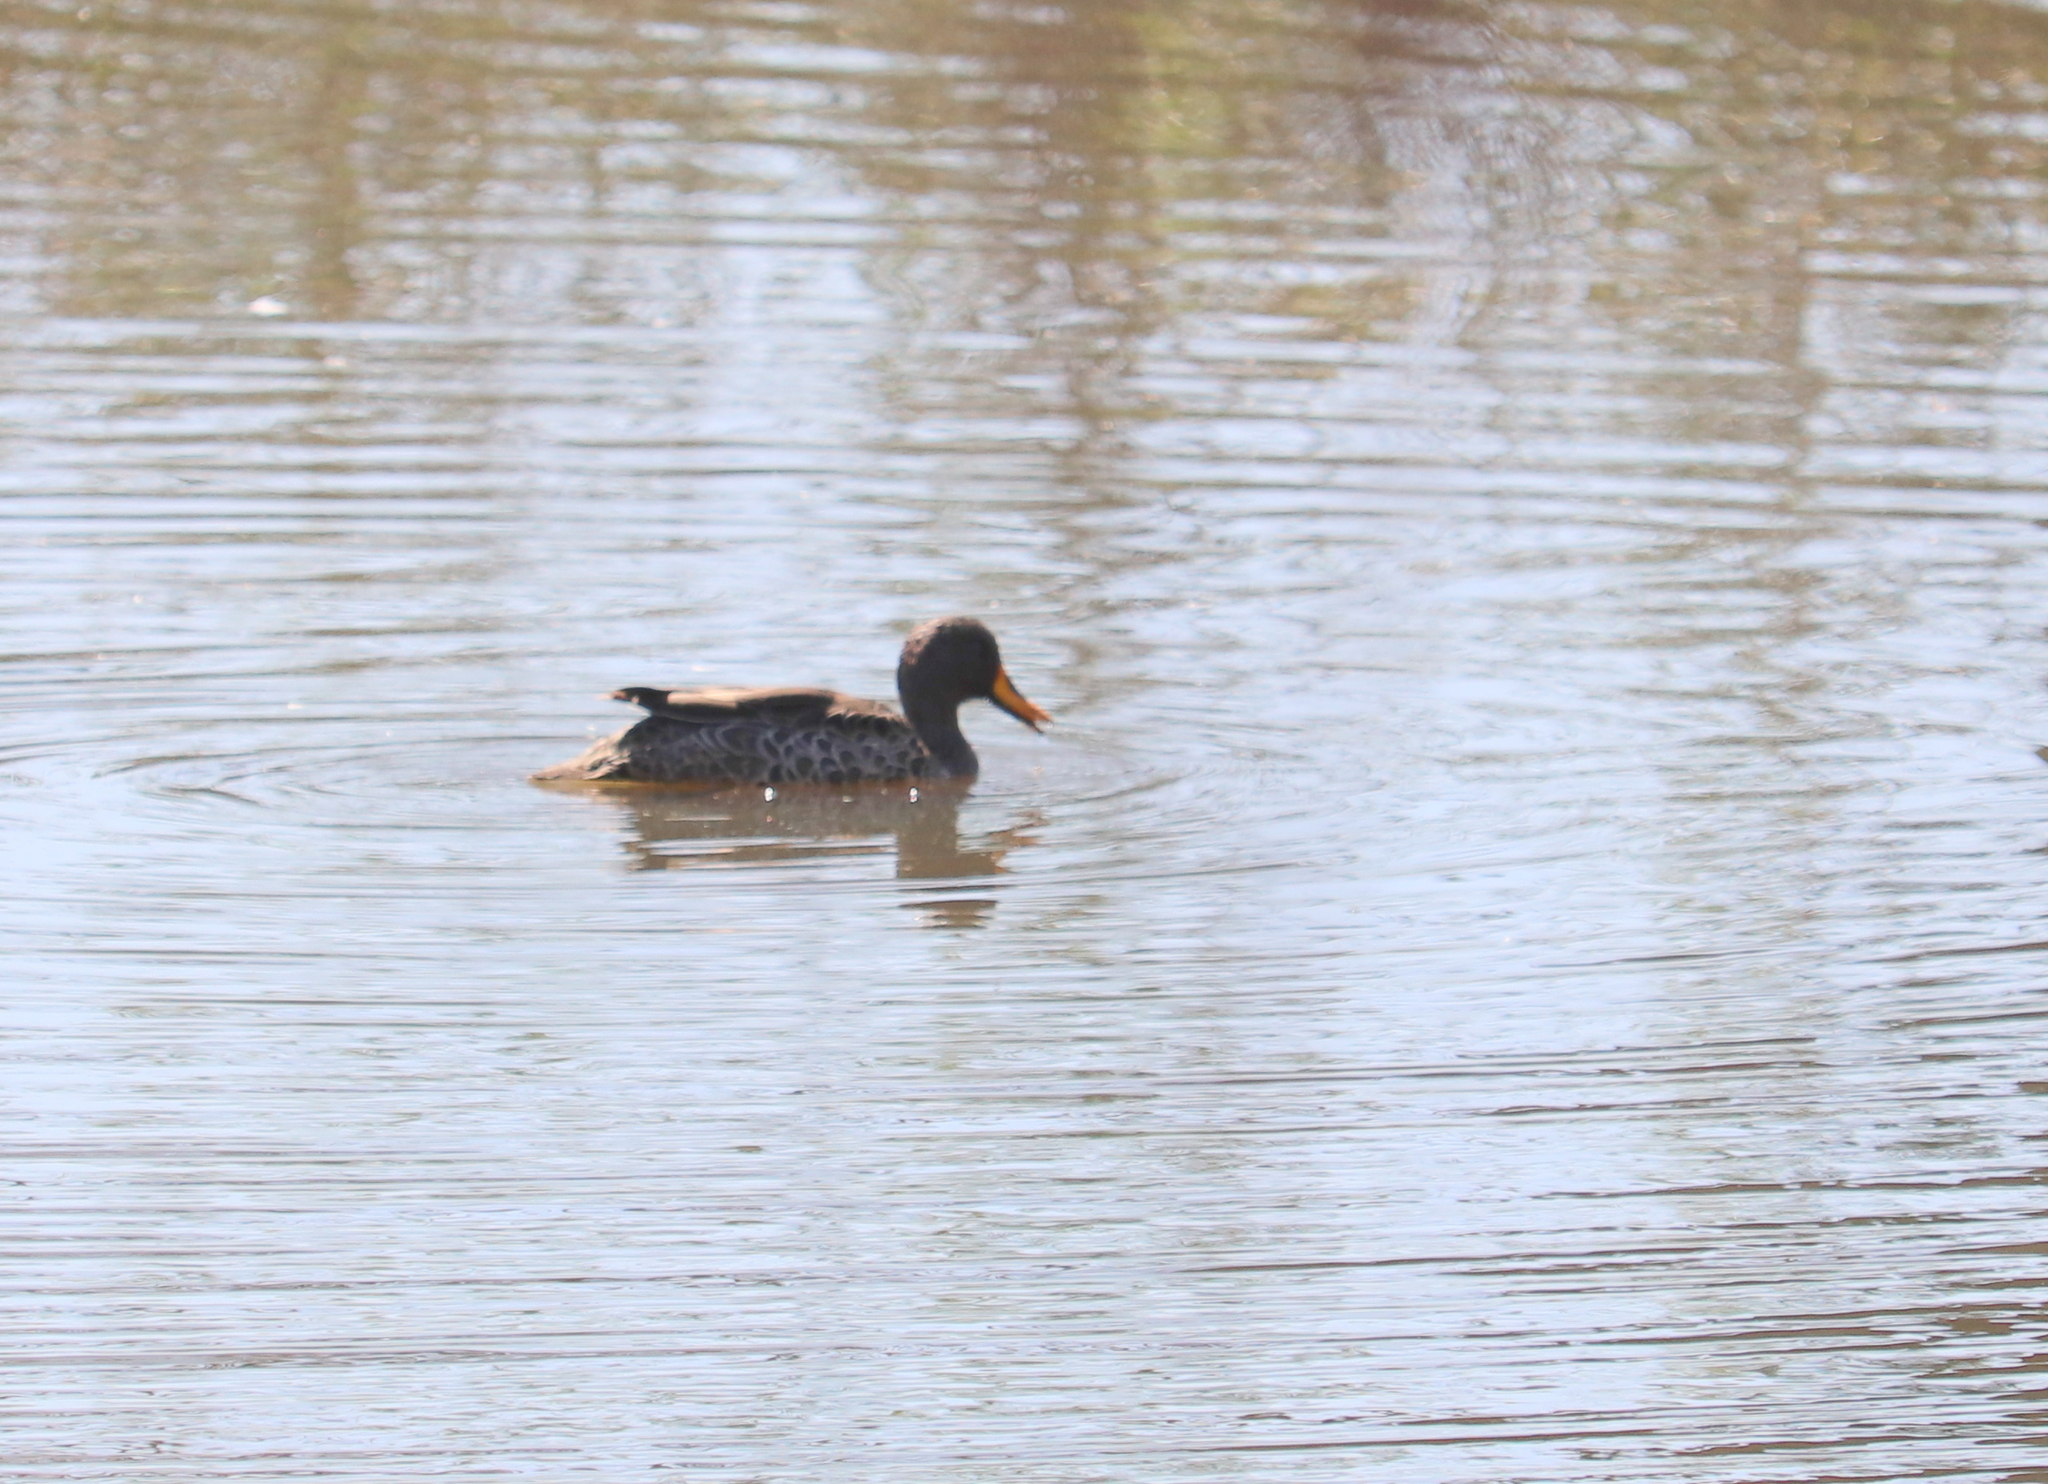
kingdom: Animalia
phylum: Chordata
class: Aves
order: Anseriformes
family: Anatidae
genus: Anas
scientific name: Anas undulata
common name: Yellow-billed duck
